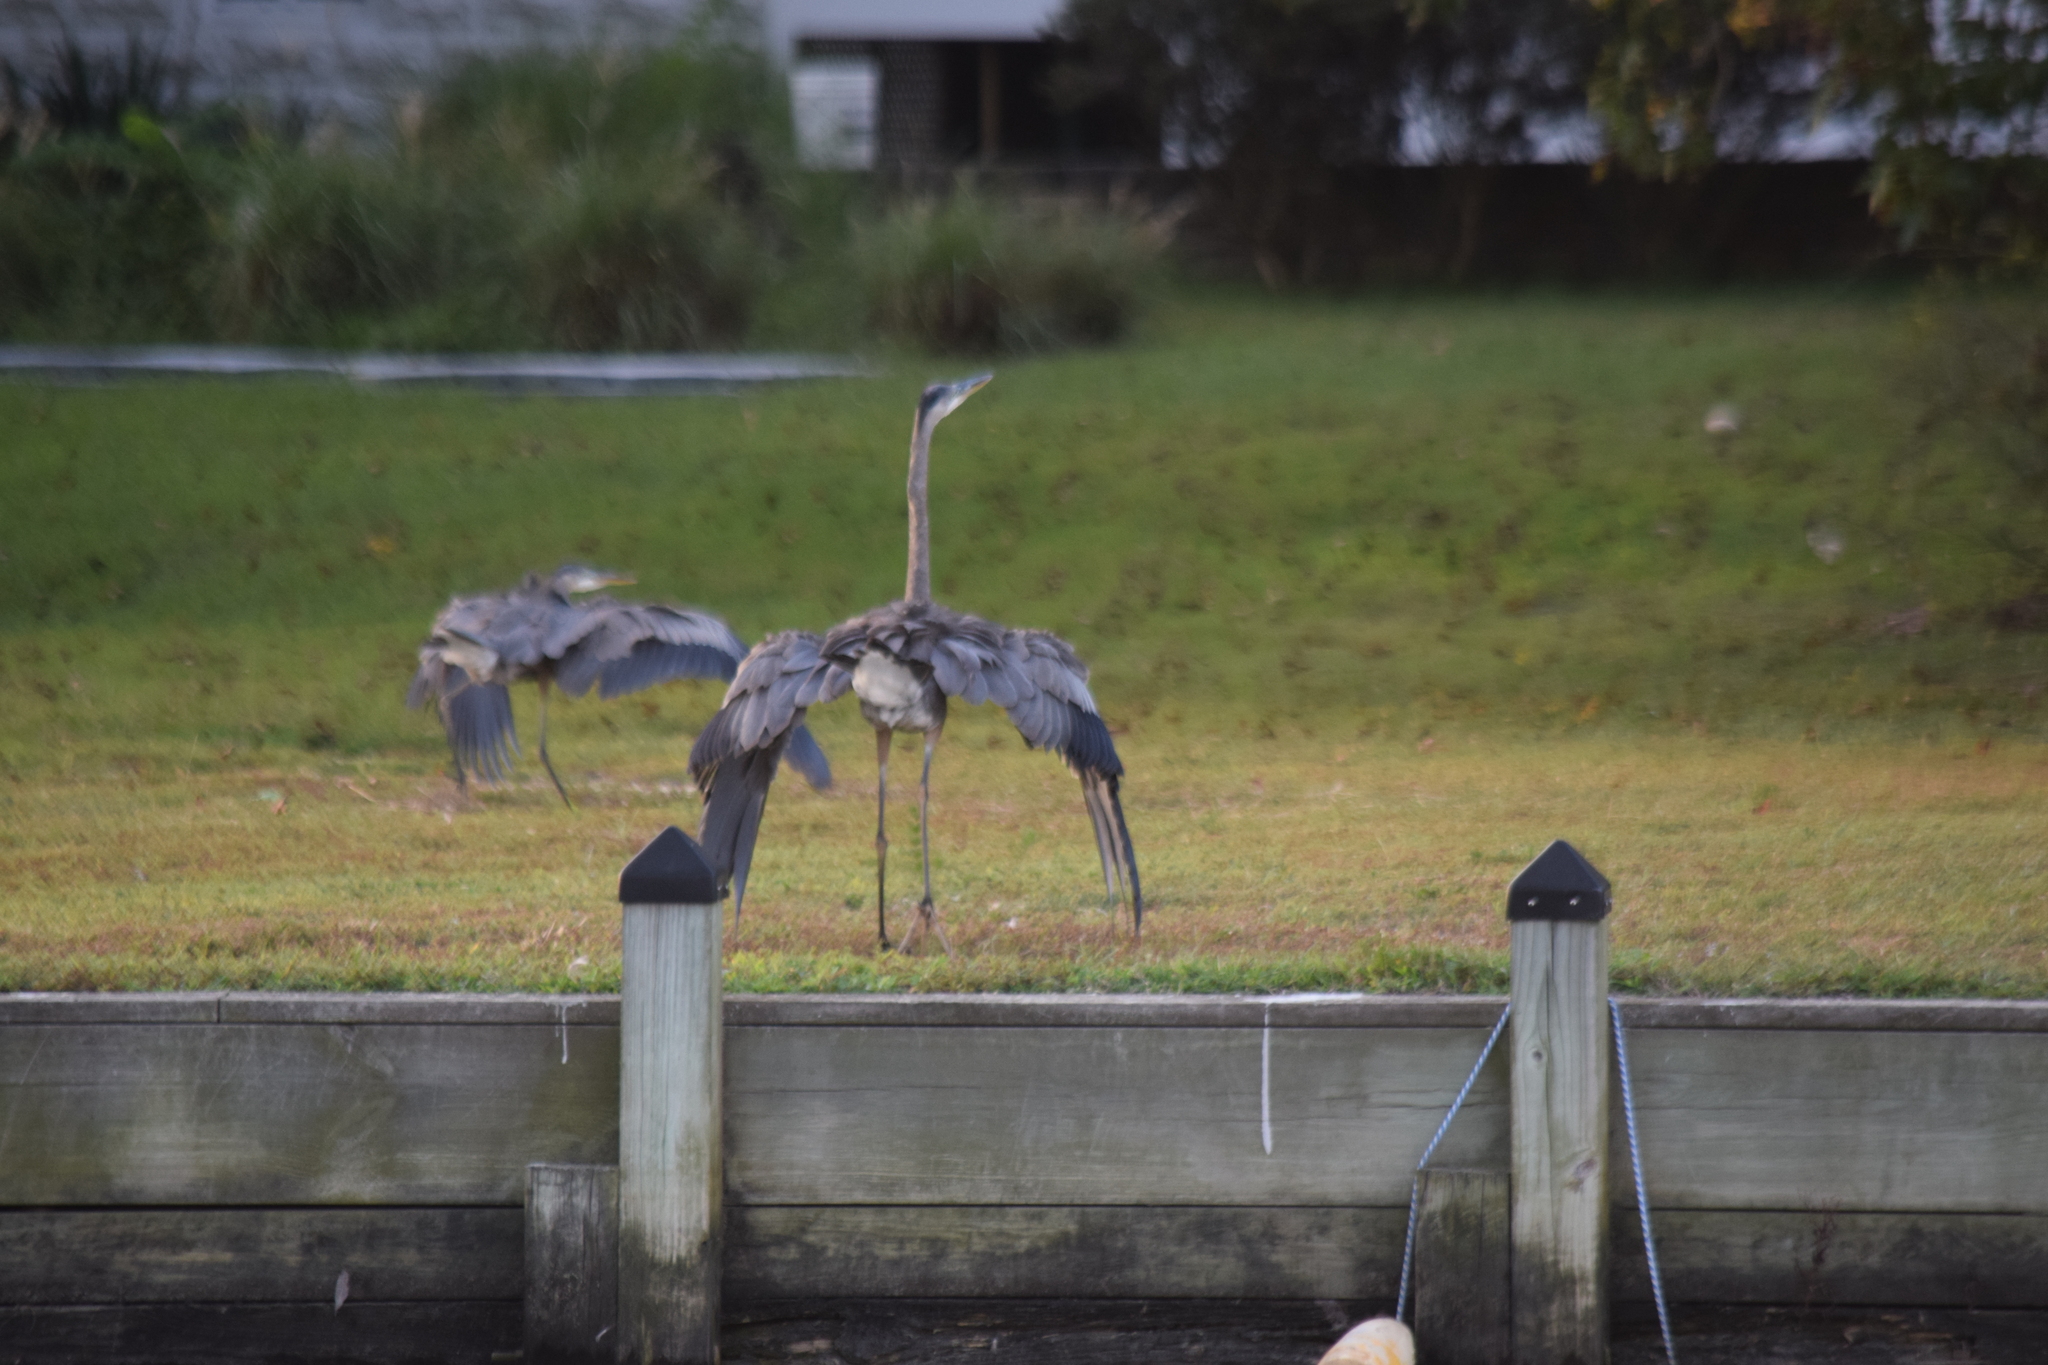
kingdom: Animalia
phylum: Chordata
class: Aves
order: Pelecaniformes
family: Ardeidae
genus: Ardea
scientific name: Ardea herodias
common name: Great blue heron
